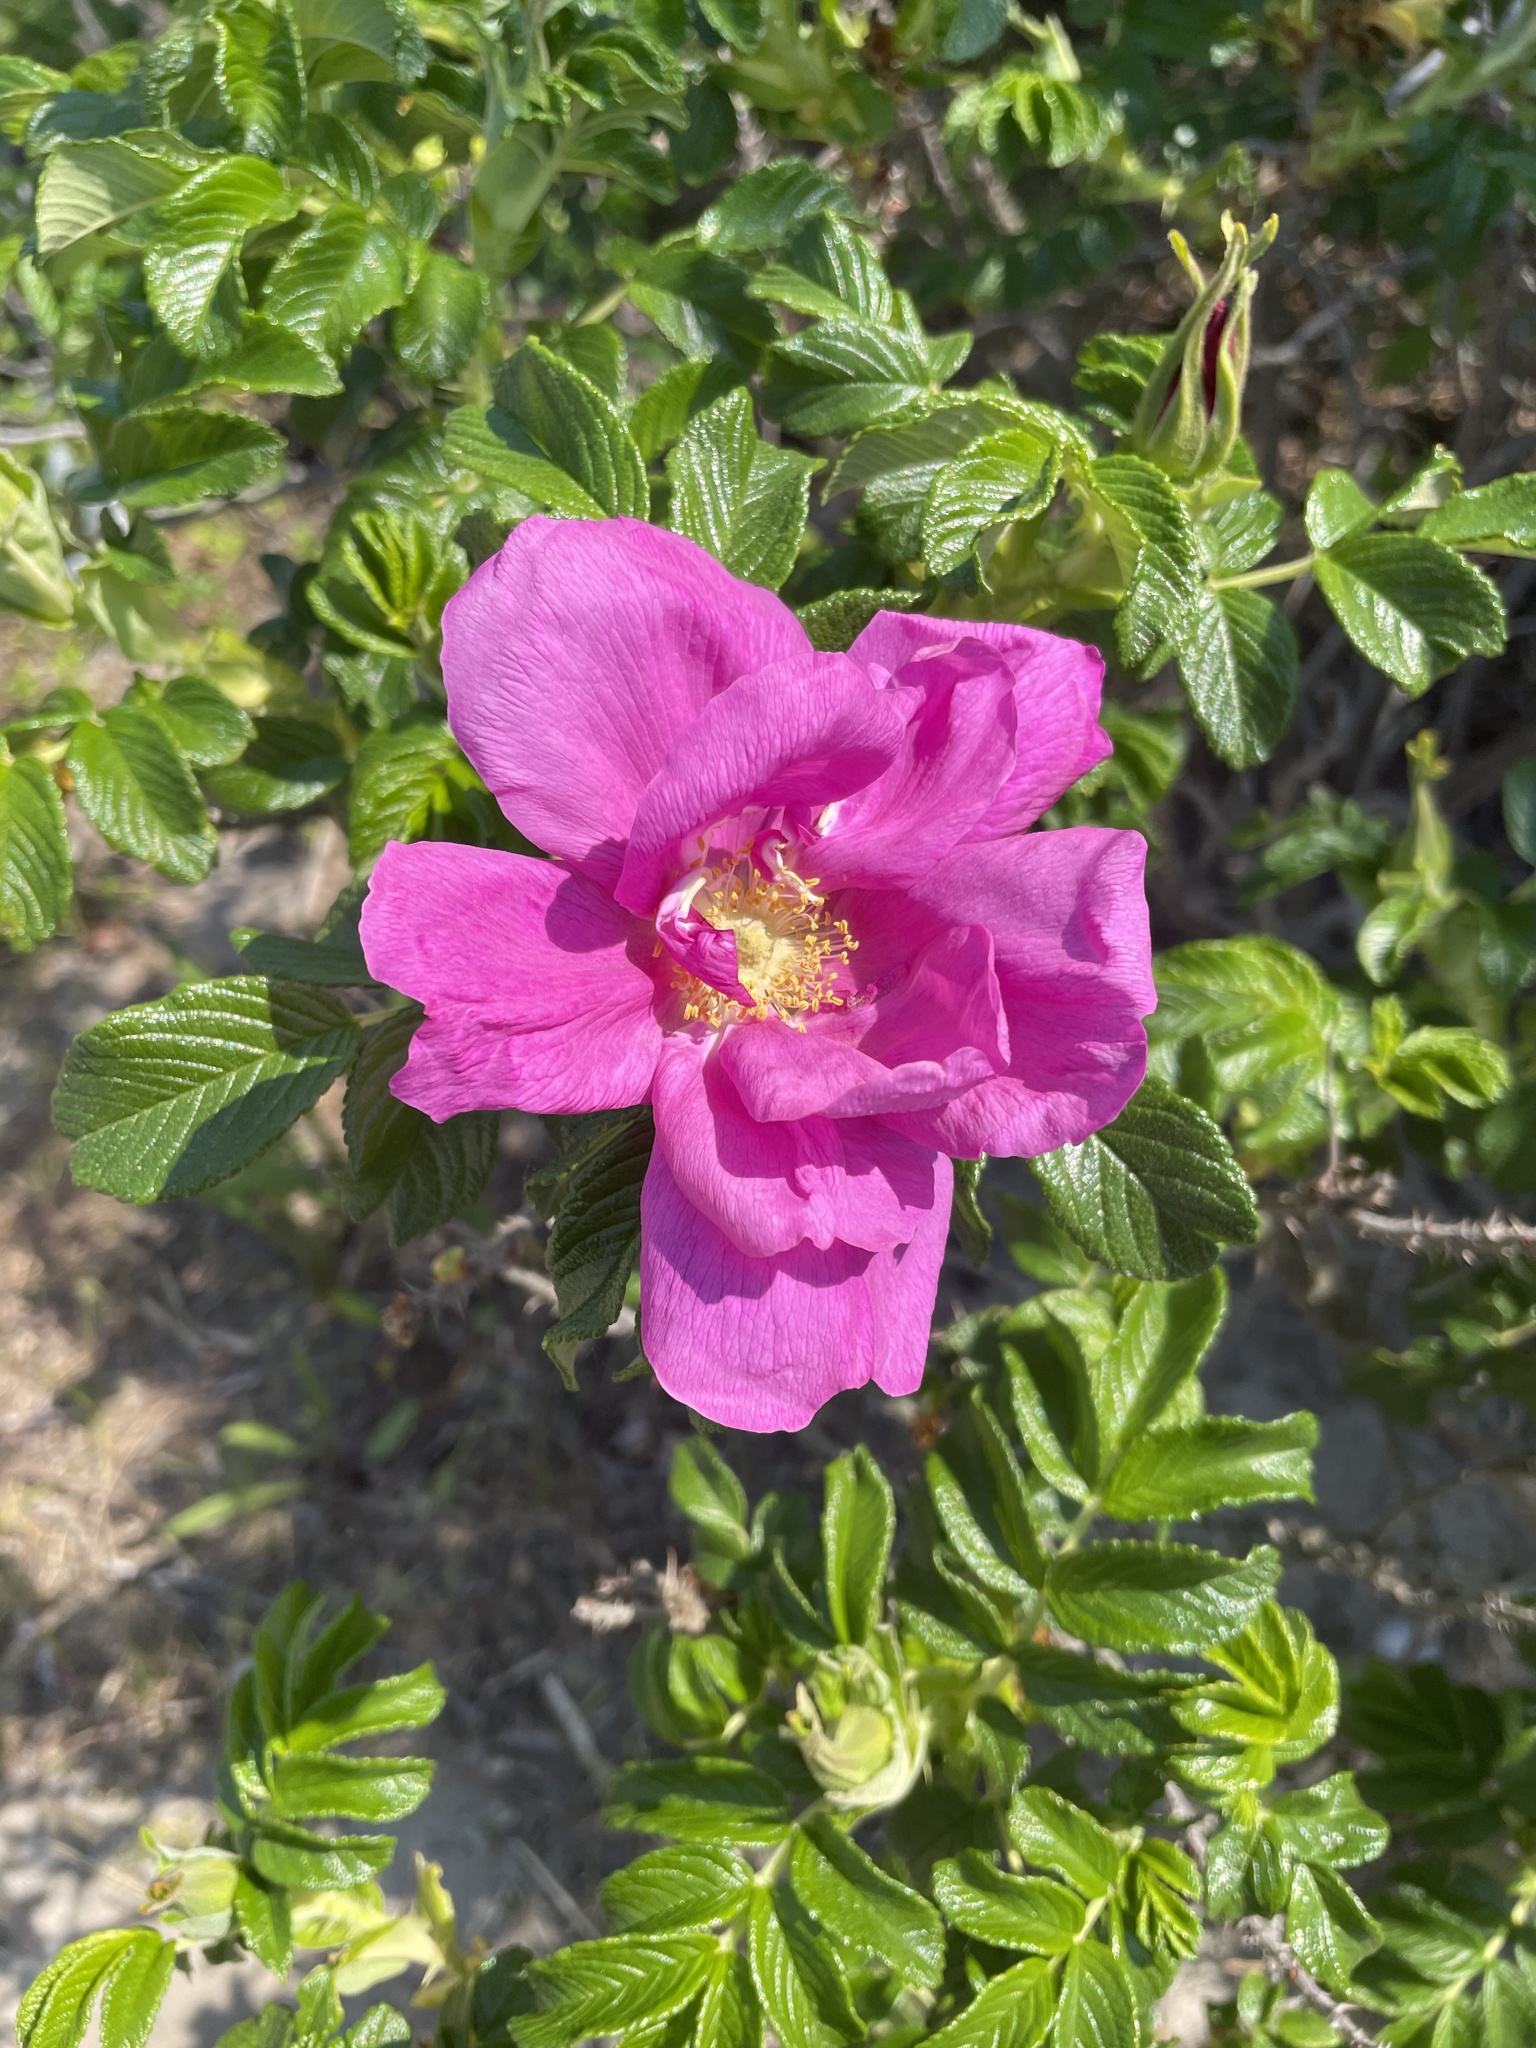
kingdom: Plantae
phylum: Tracheophyta
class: Magnoliopsida
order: Rosales
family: Rosaceae
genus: Rosa
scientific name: Rosa rugosa
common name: Japanese rose
